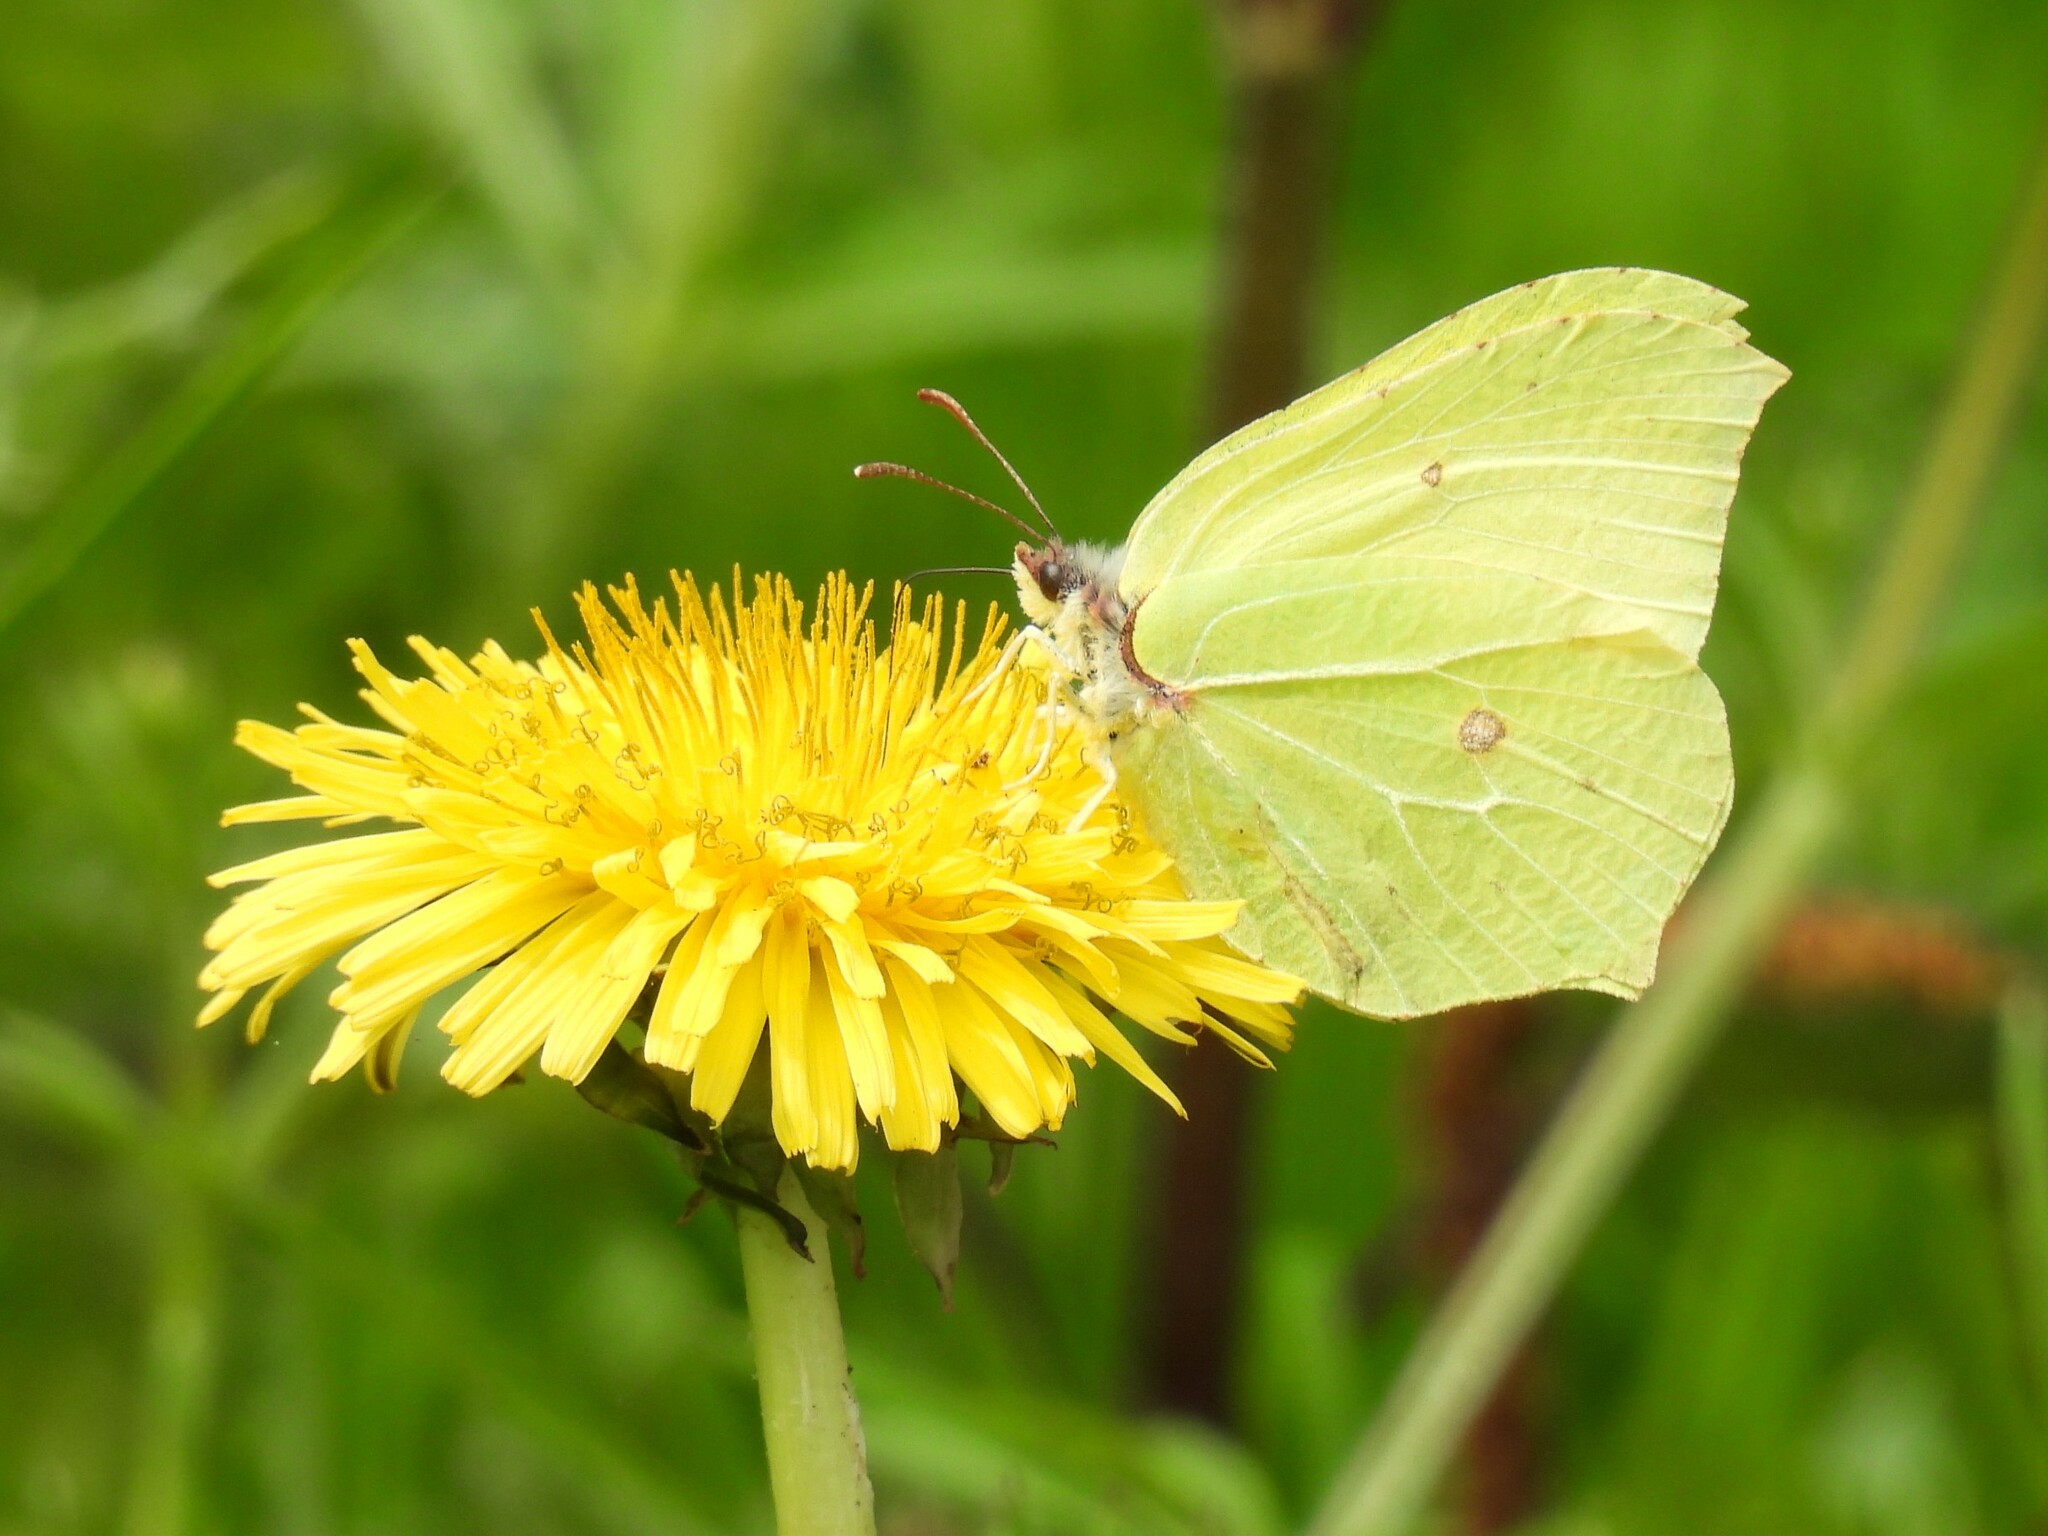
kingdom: Animalia
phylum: Arthropoda
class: Insecta
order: Lepidoptera
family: Pieridae
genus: Gonepteryx
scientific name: Gonepteryx rhamni
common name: Brimstone
